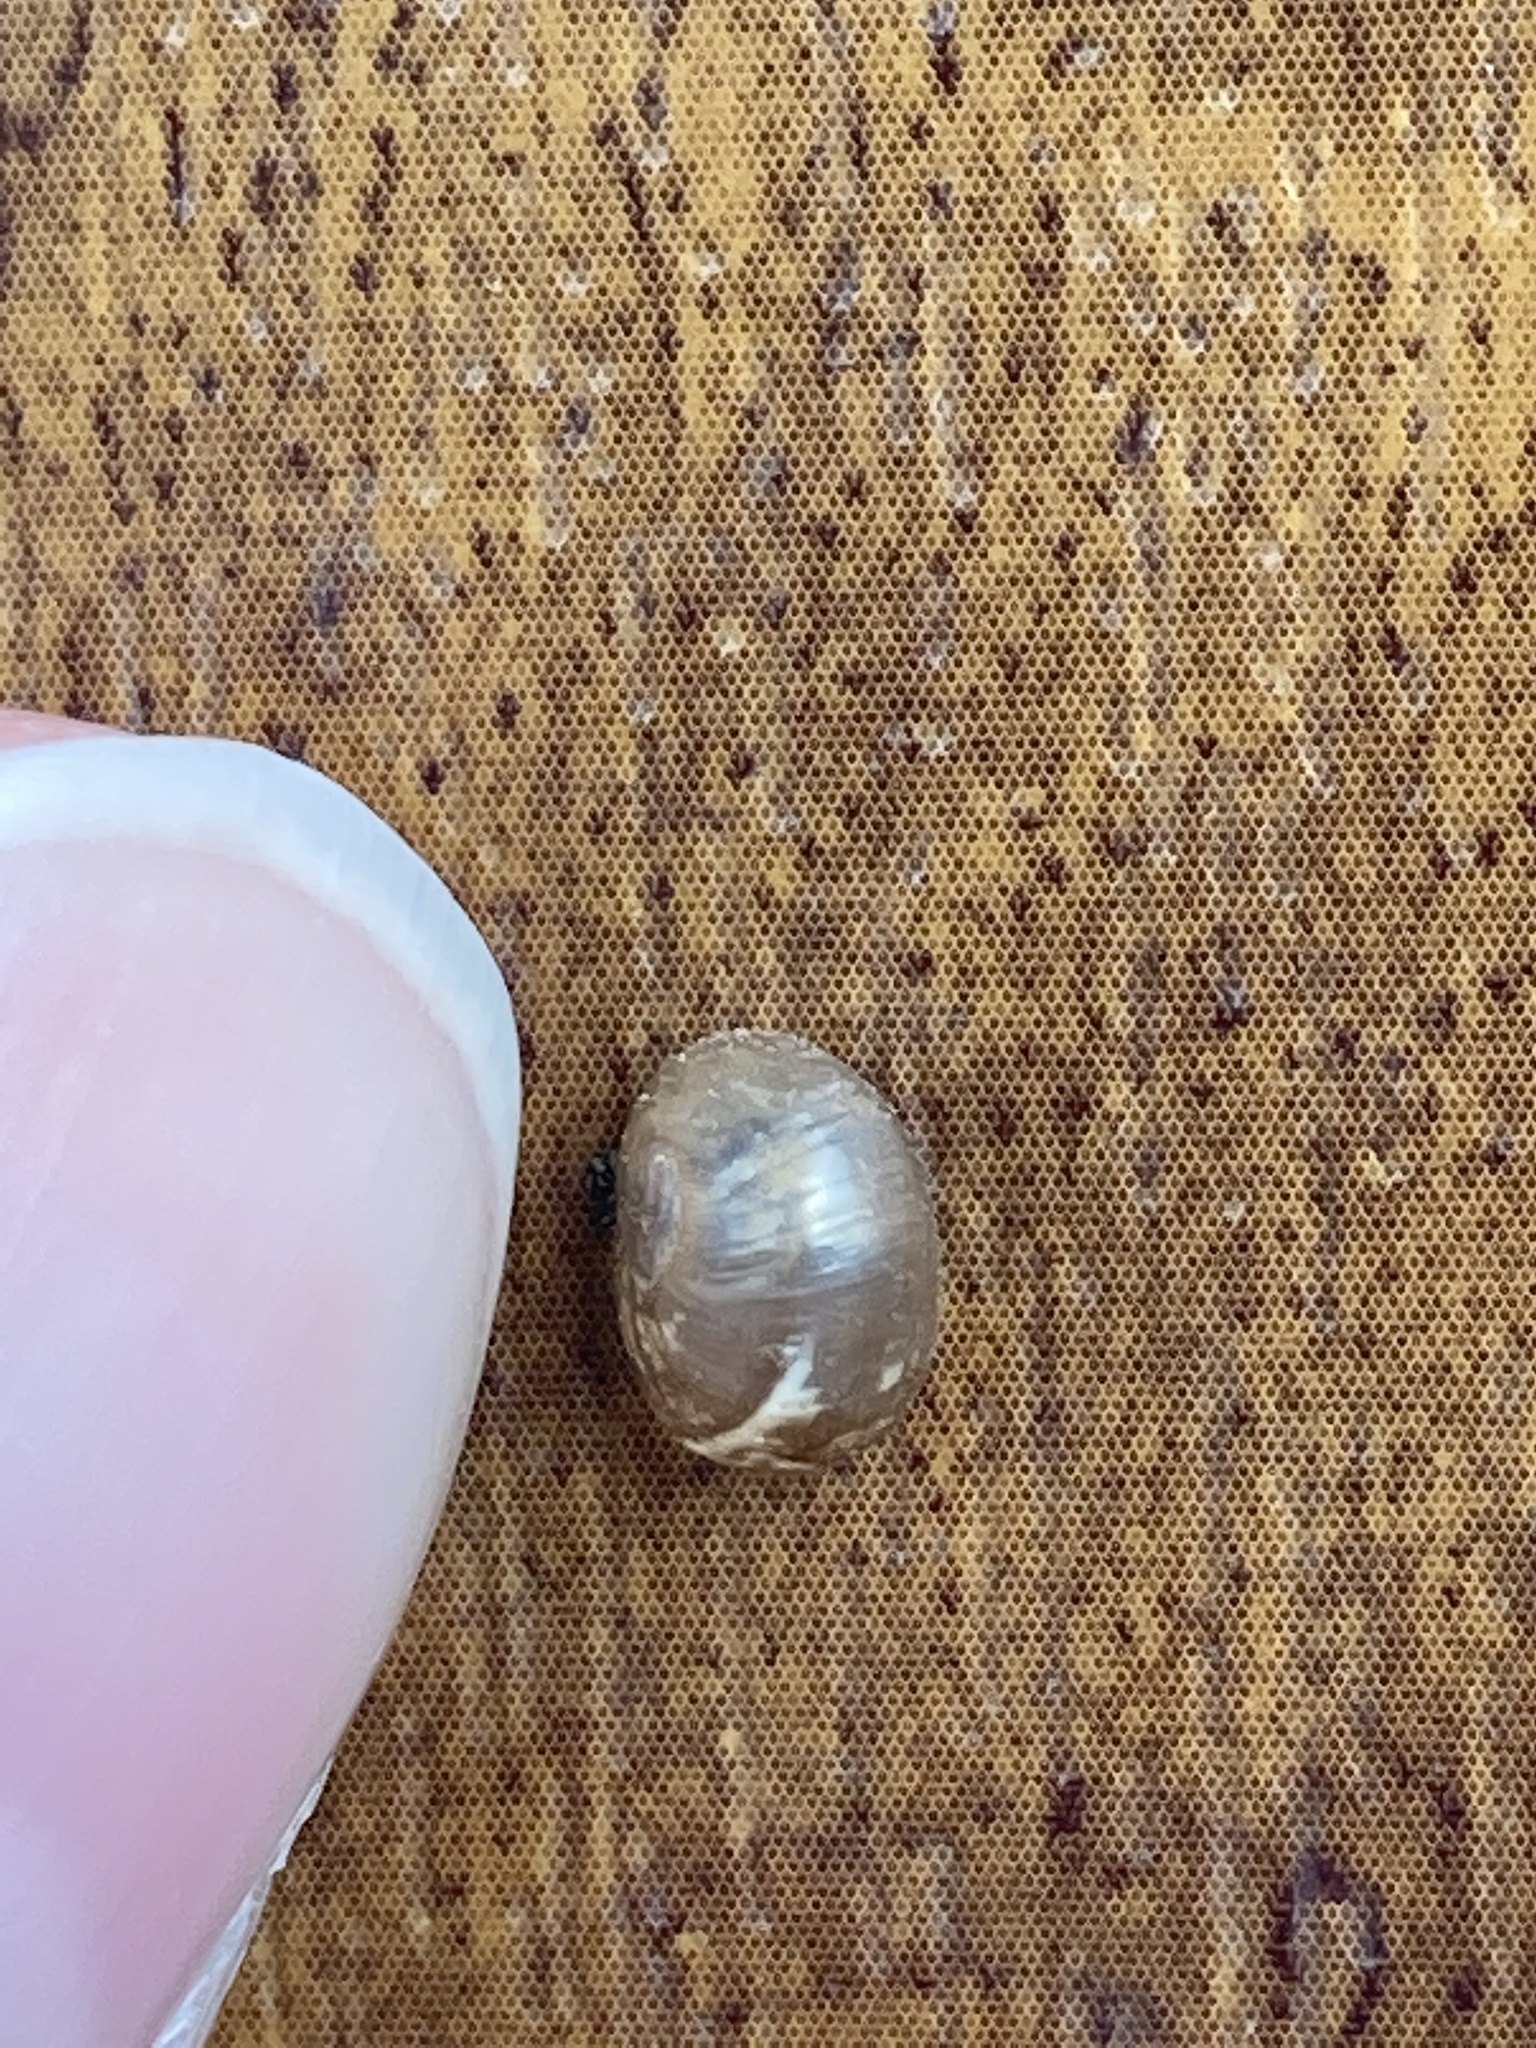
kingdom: Animalia
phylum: Mollusca
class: Gastropoda
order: Stylommatophora
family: Helicidae
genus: Cornu
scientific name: Cornu aspersum
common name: Brown garden snail
